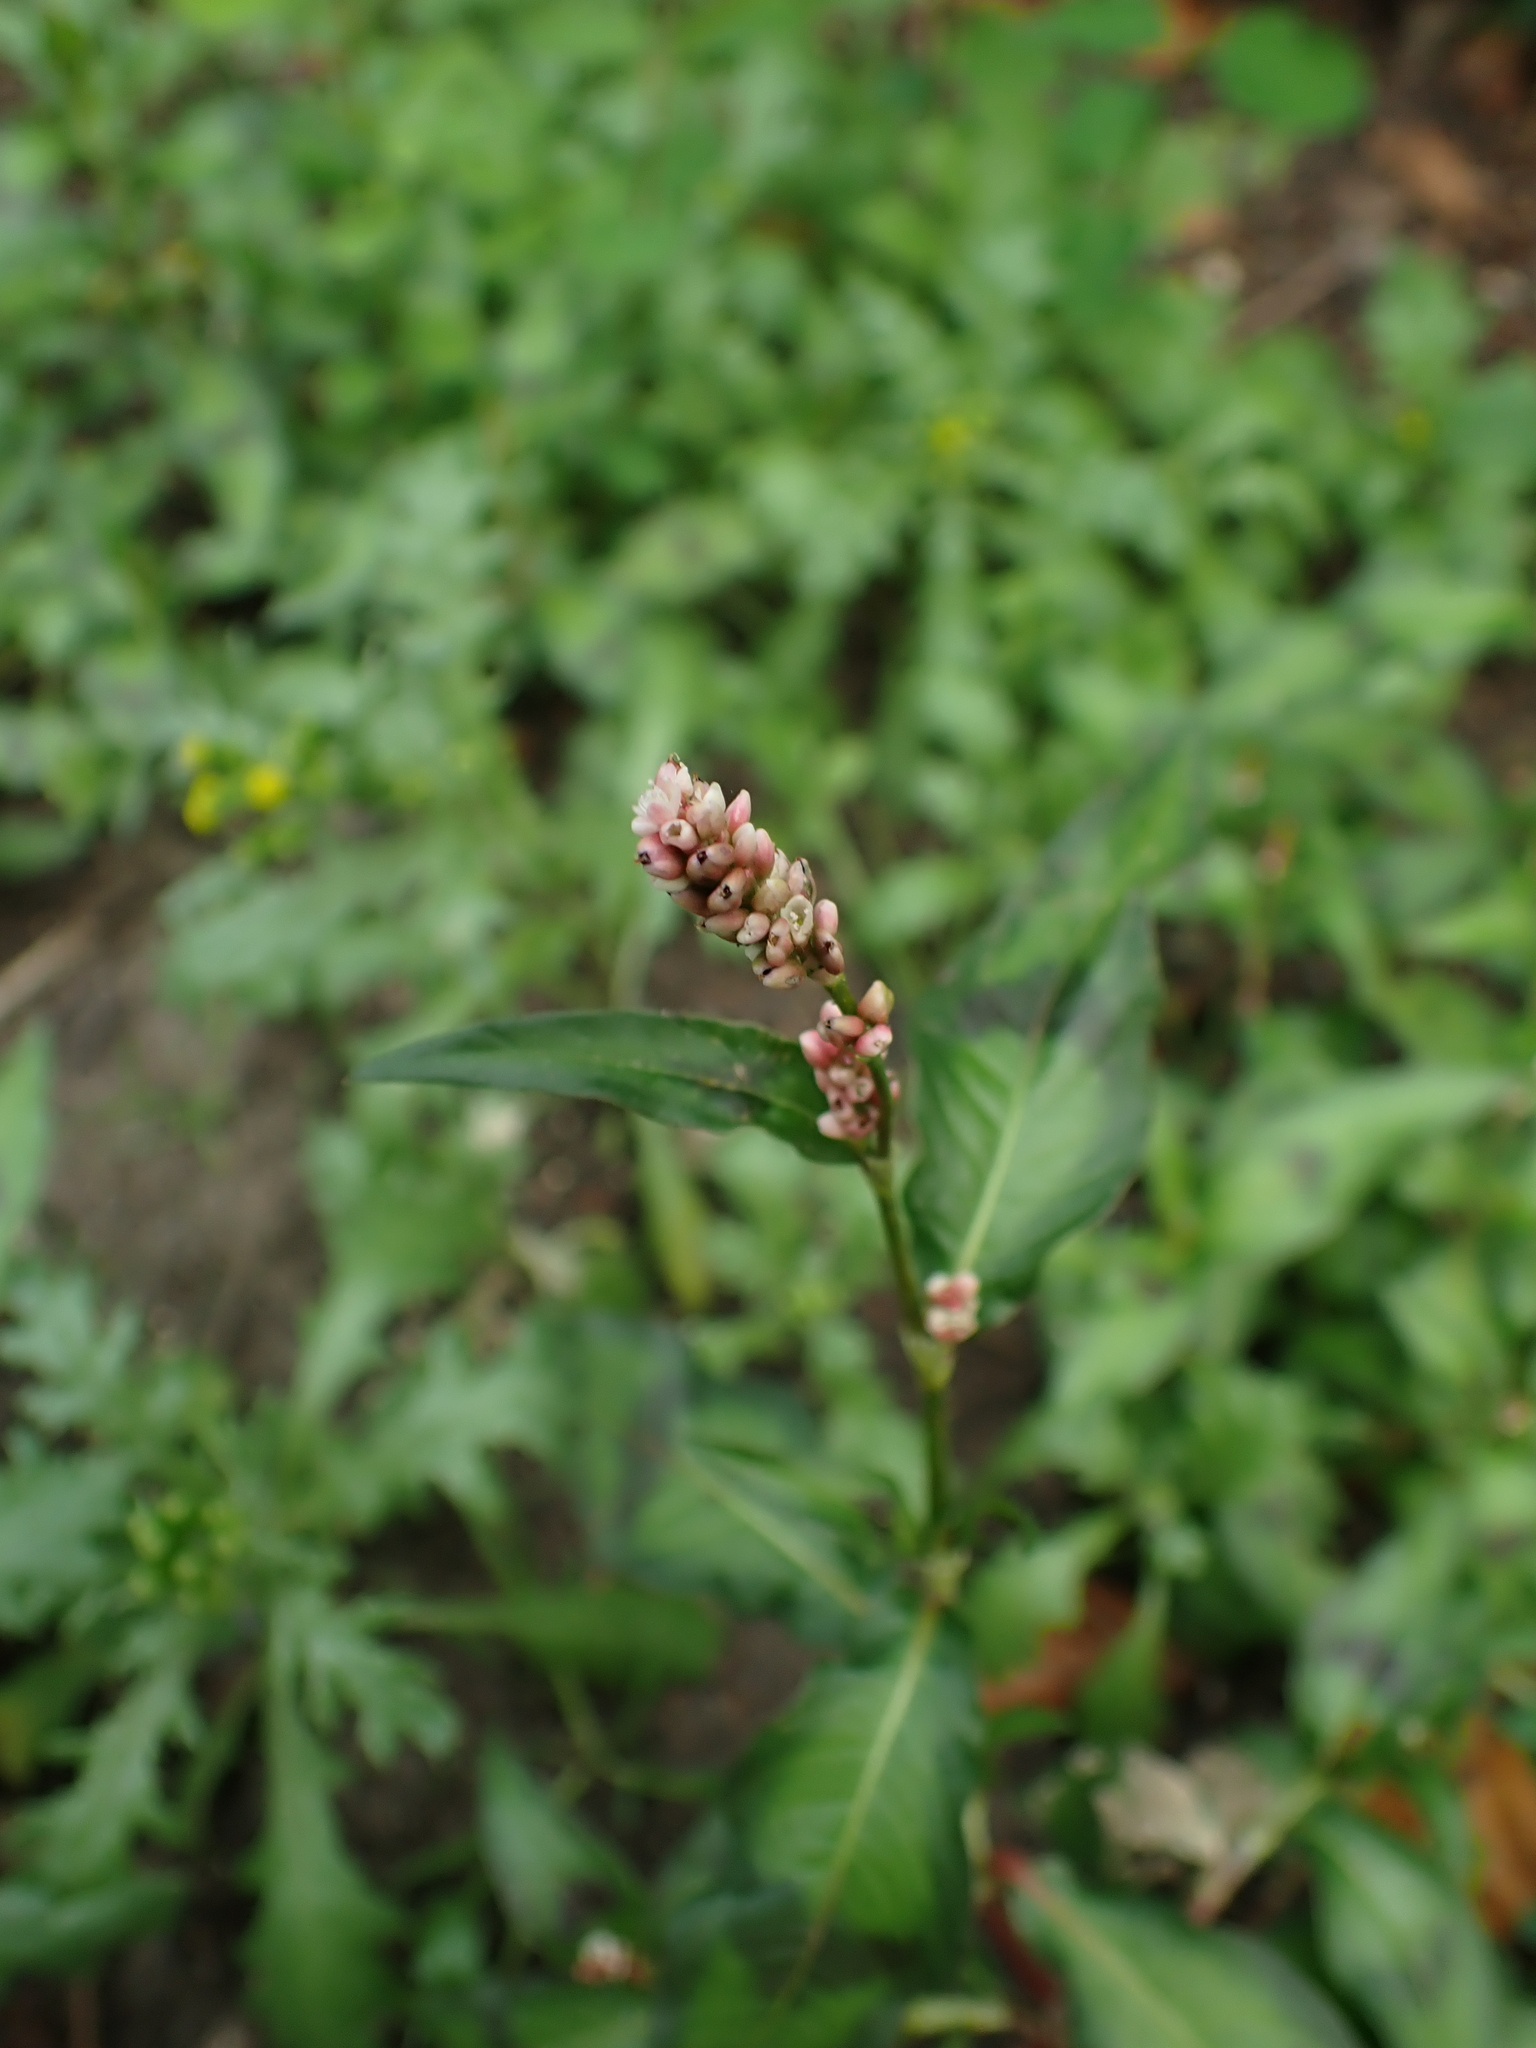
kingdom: Plantae
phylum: Tracheophyta
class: Magnoliopsida
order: Caryophyllales
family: Polygonaceae
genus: Persicaria
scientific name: Persicaria maculosa
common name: Redshank
